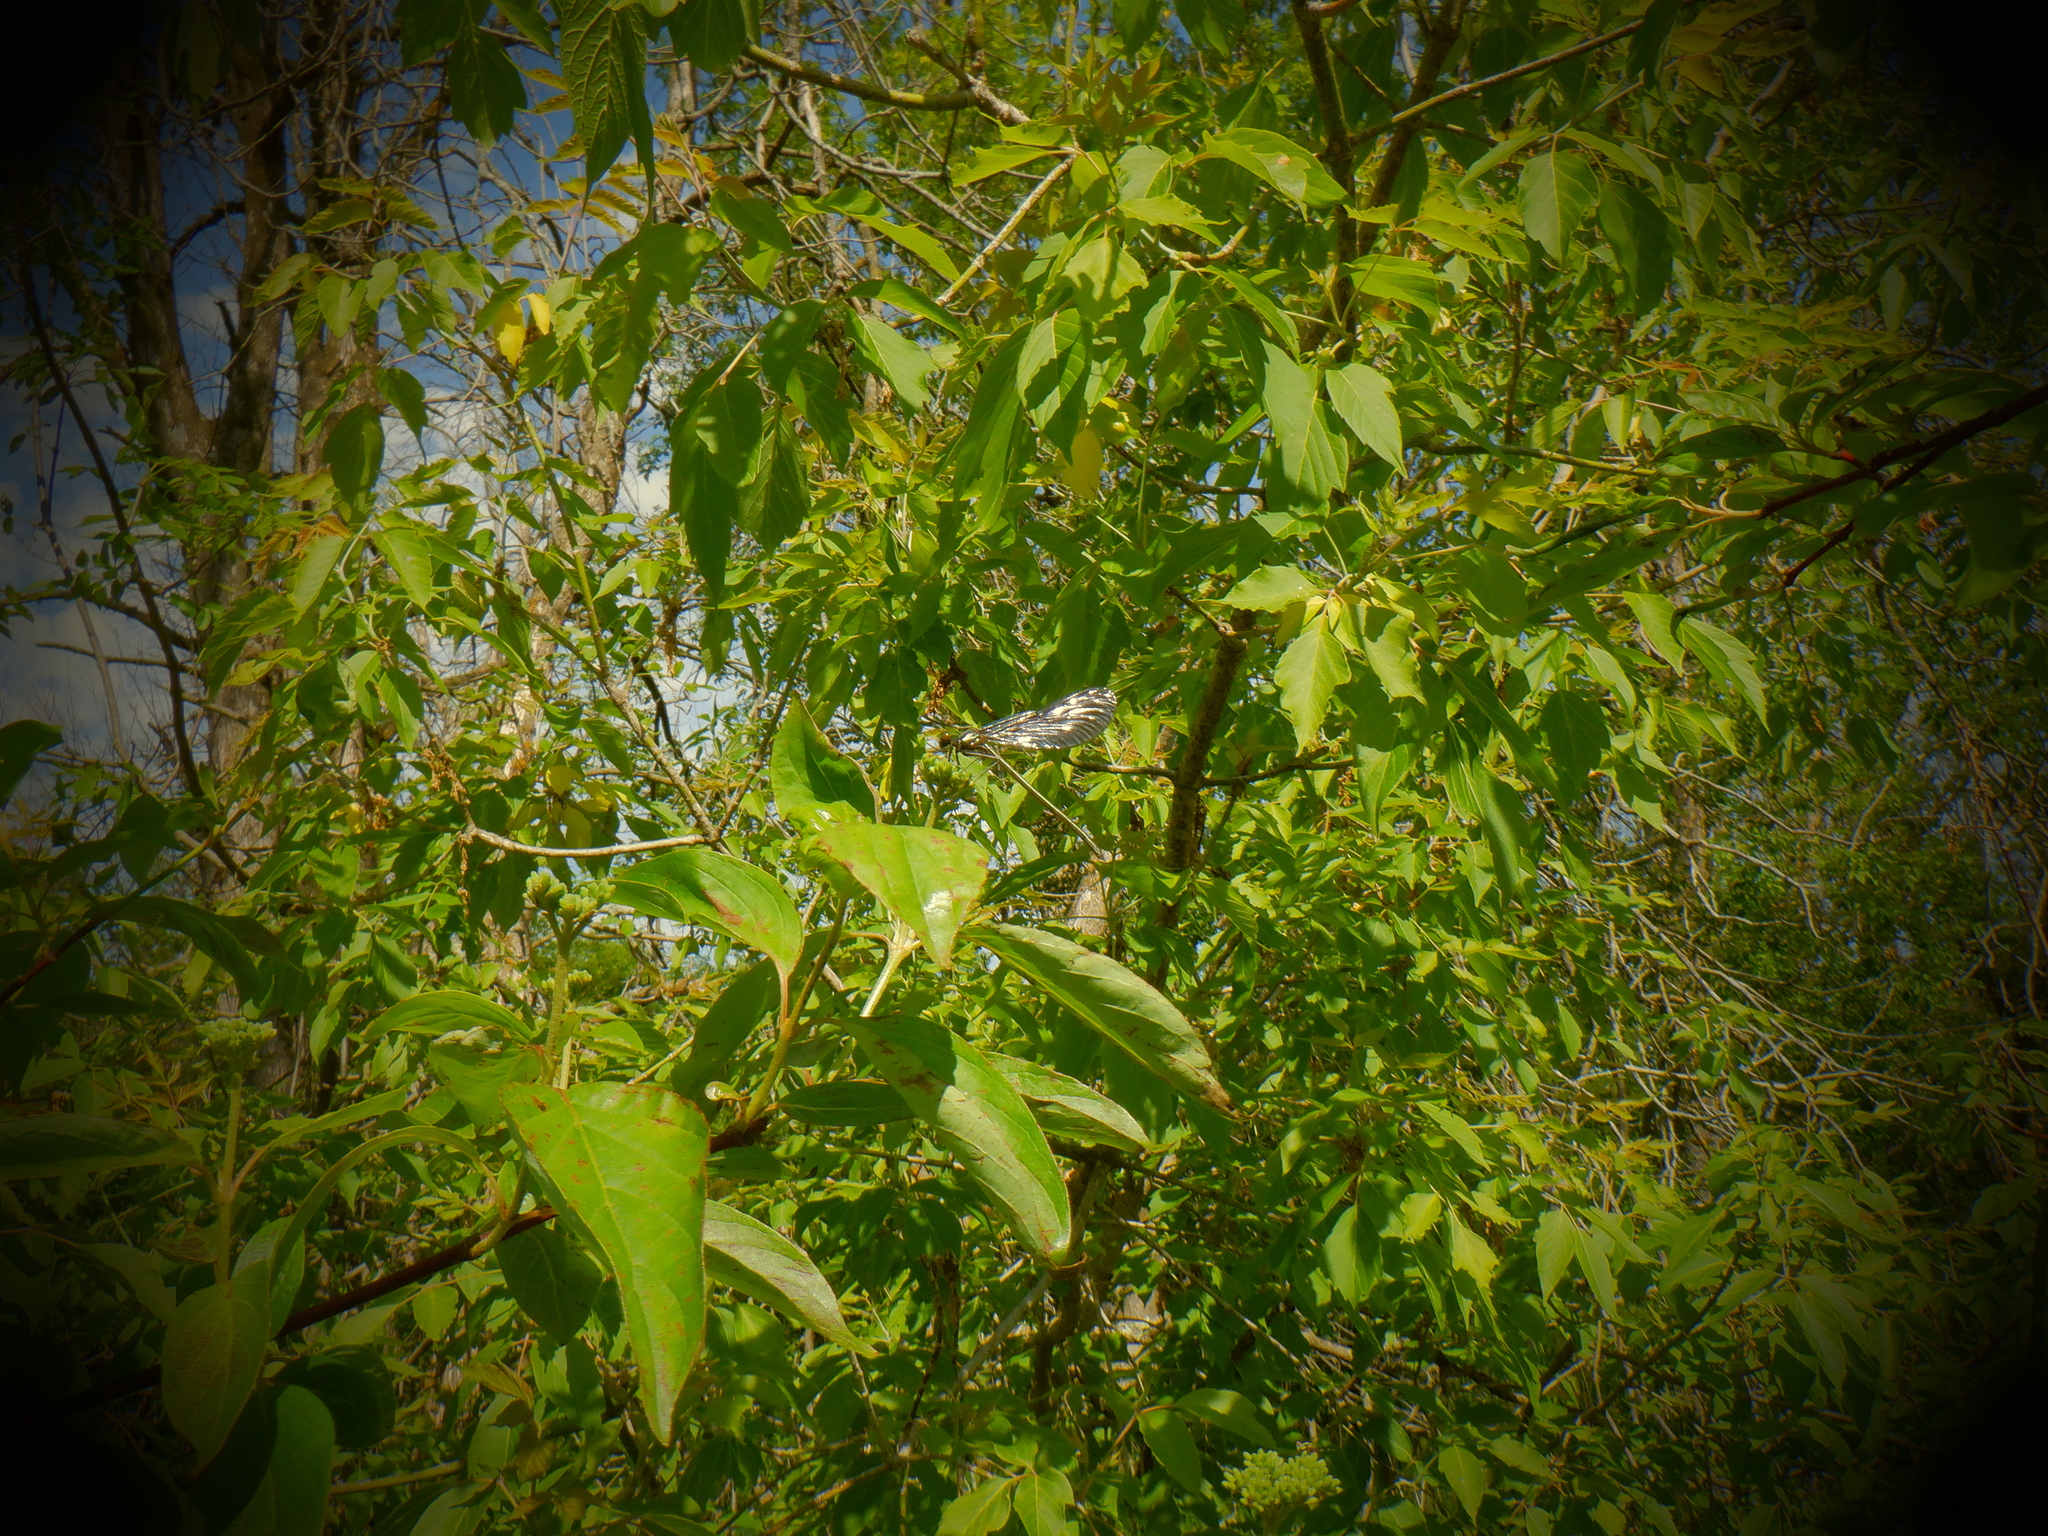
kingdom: Animalia
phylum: Arthropoda
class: Insecta
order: Odonata
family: Calopterygidae
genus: Calopteryx
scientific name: Calopteryx maculata
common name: Ebony jewelwing
